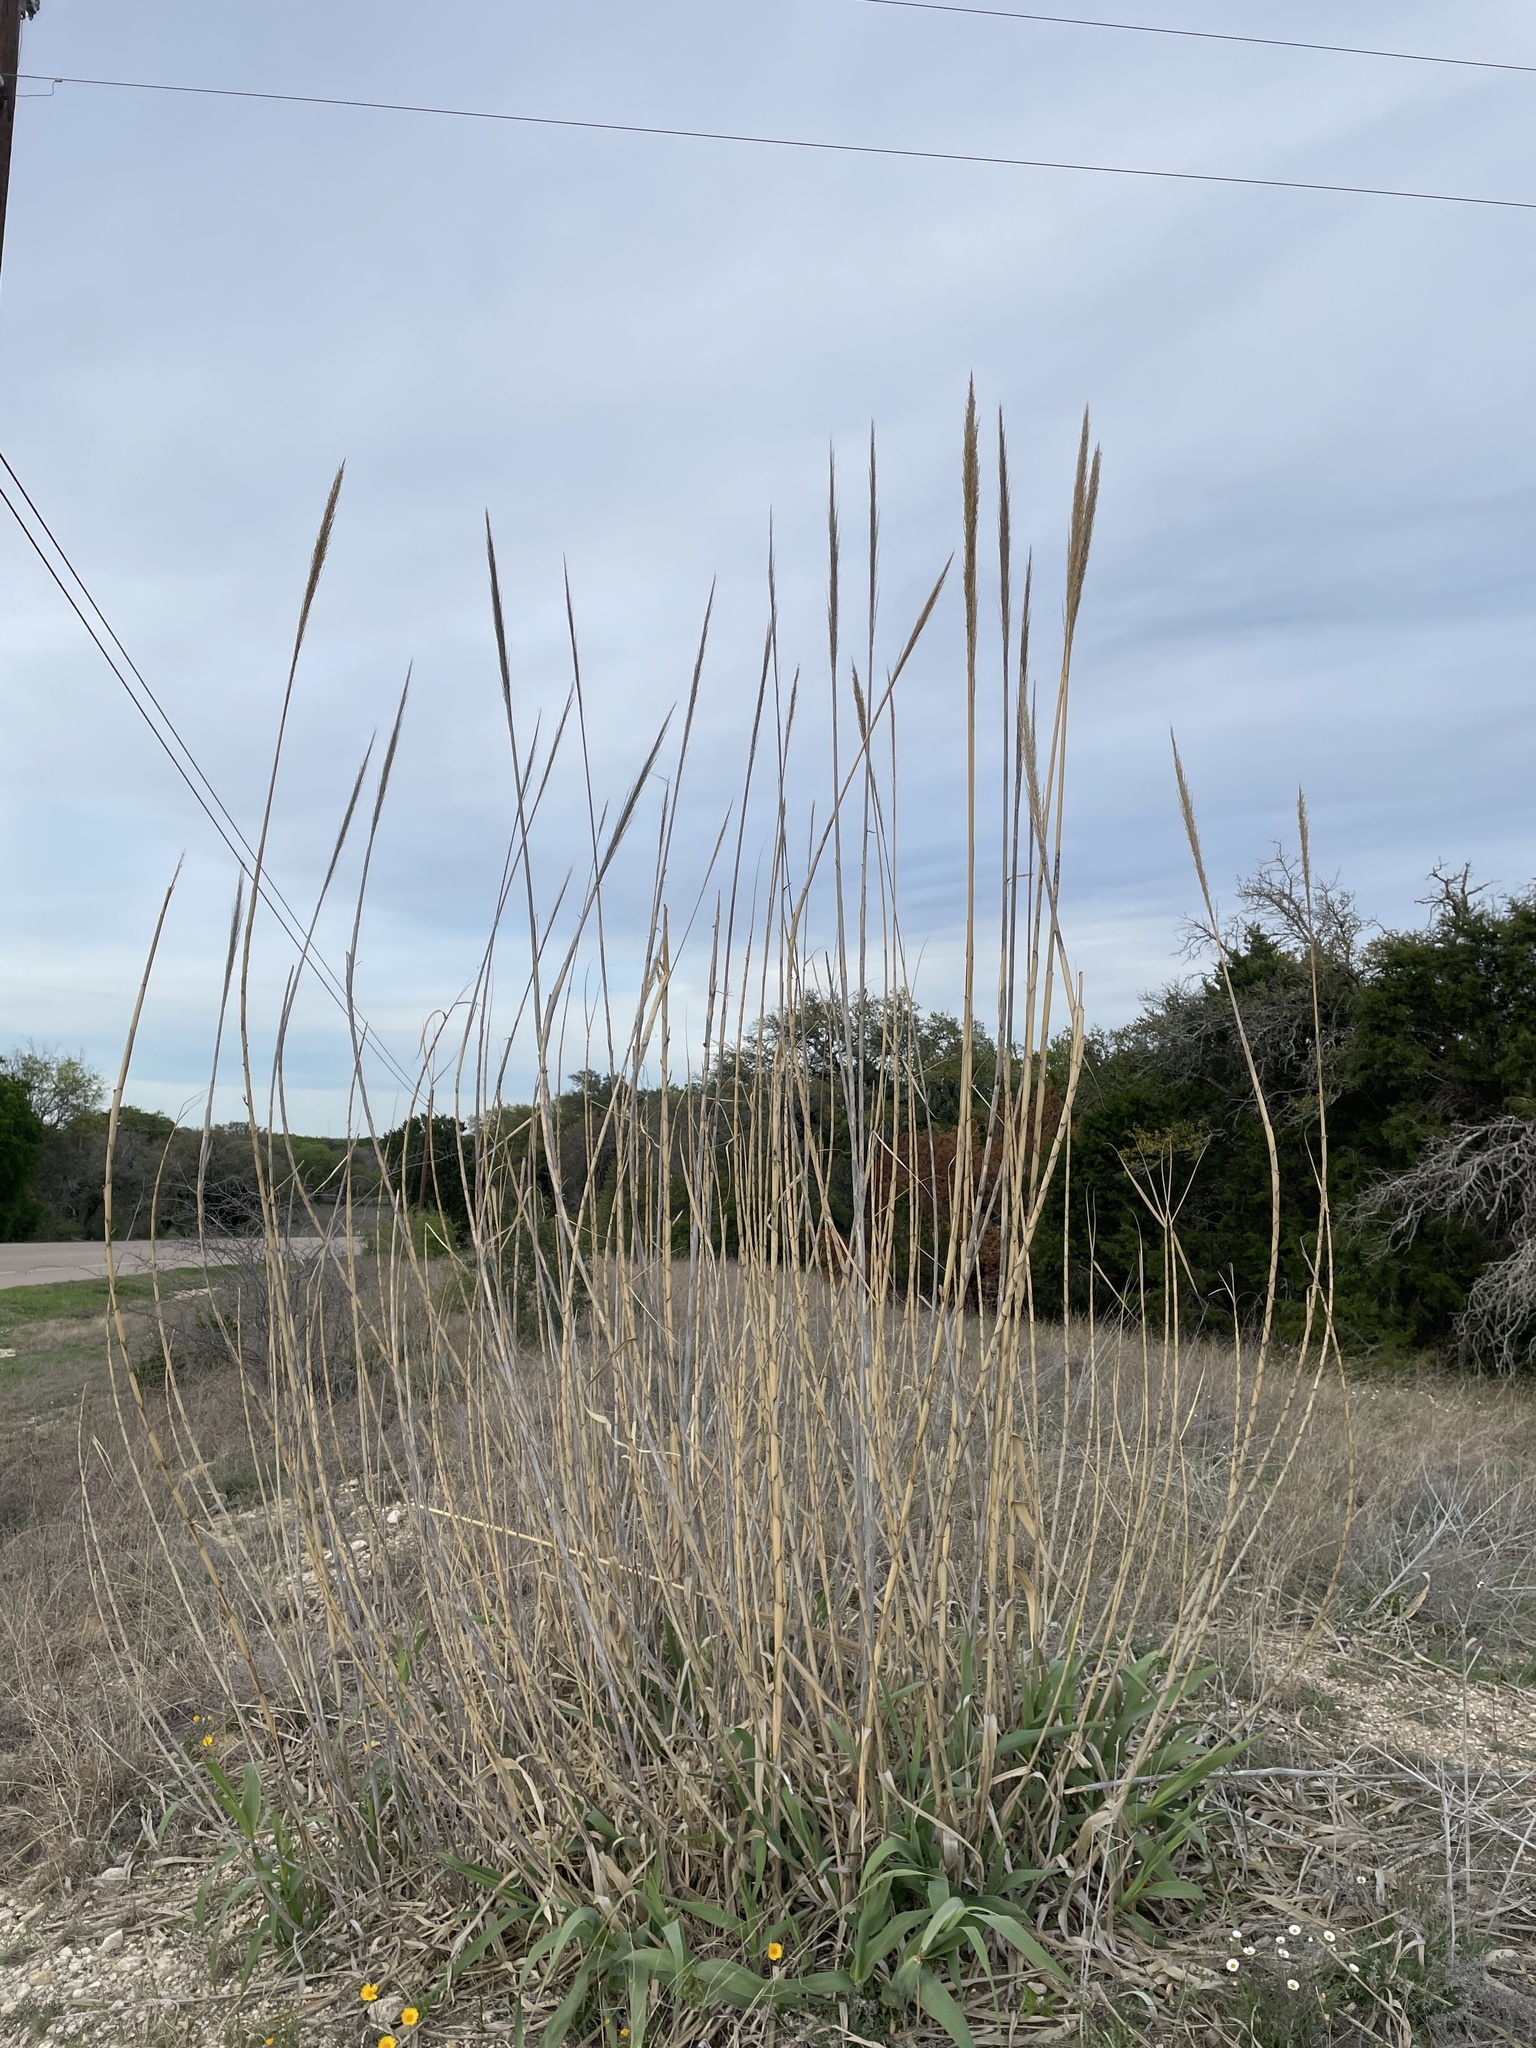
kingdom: Plantae
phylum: Tracheophyta
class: Liliopsida
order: Poales
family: Poaceae
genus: Arundo
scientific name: Arundo donax
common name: Giant reed
